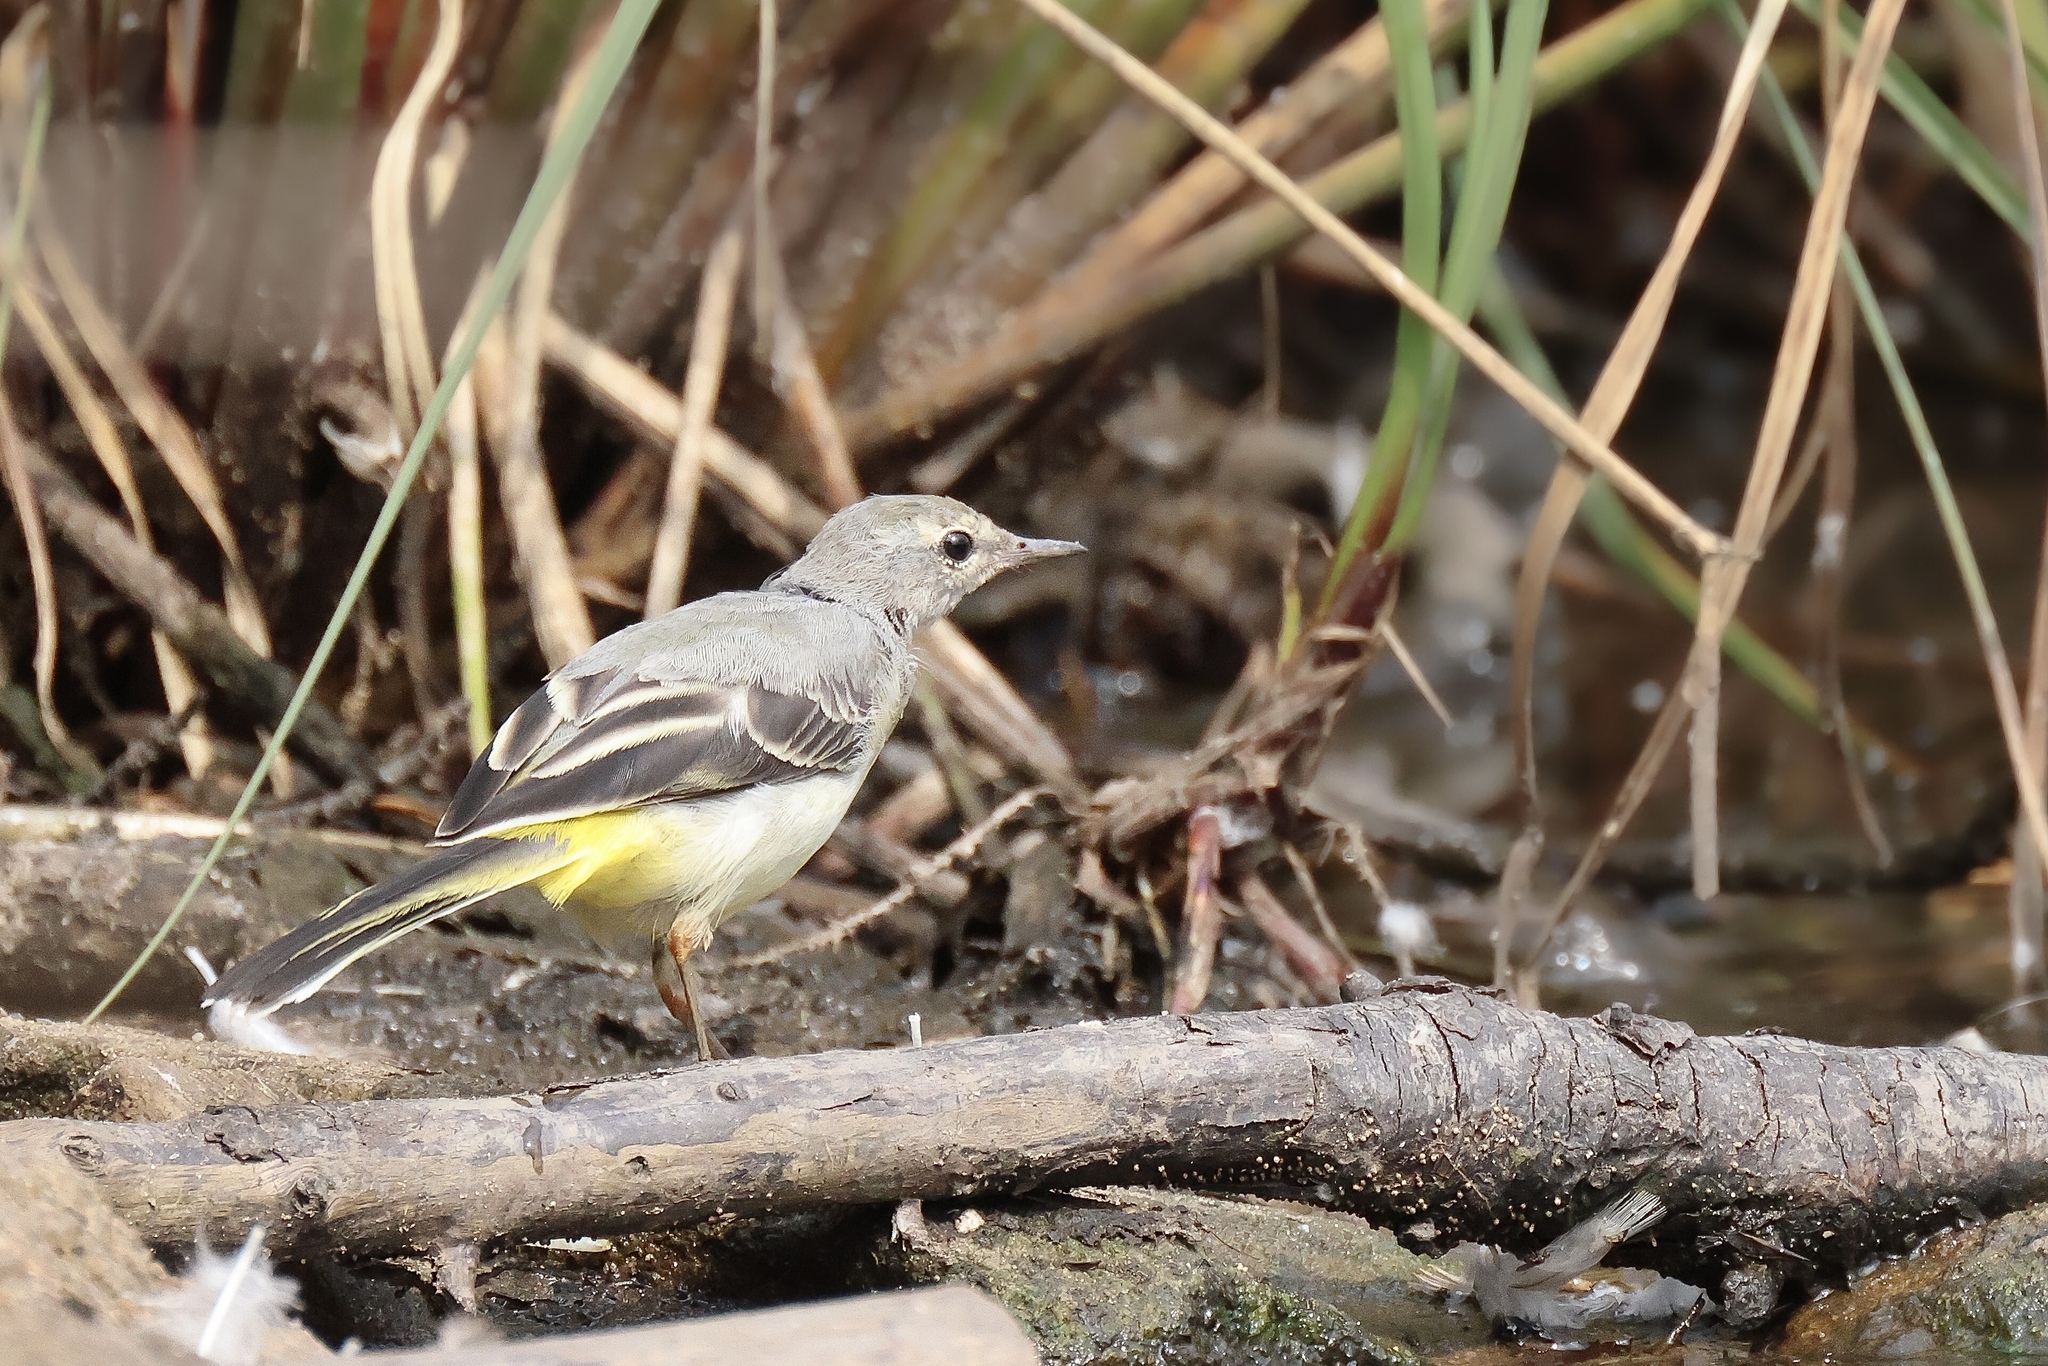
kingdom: Animalia
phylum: Chordata
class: Aves
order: Passeriformes
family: Motacillidae
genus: Motacilla
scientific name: Motacilla cinerea
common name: Grey wagtail
